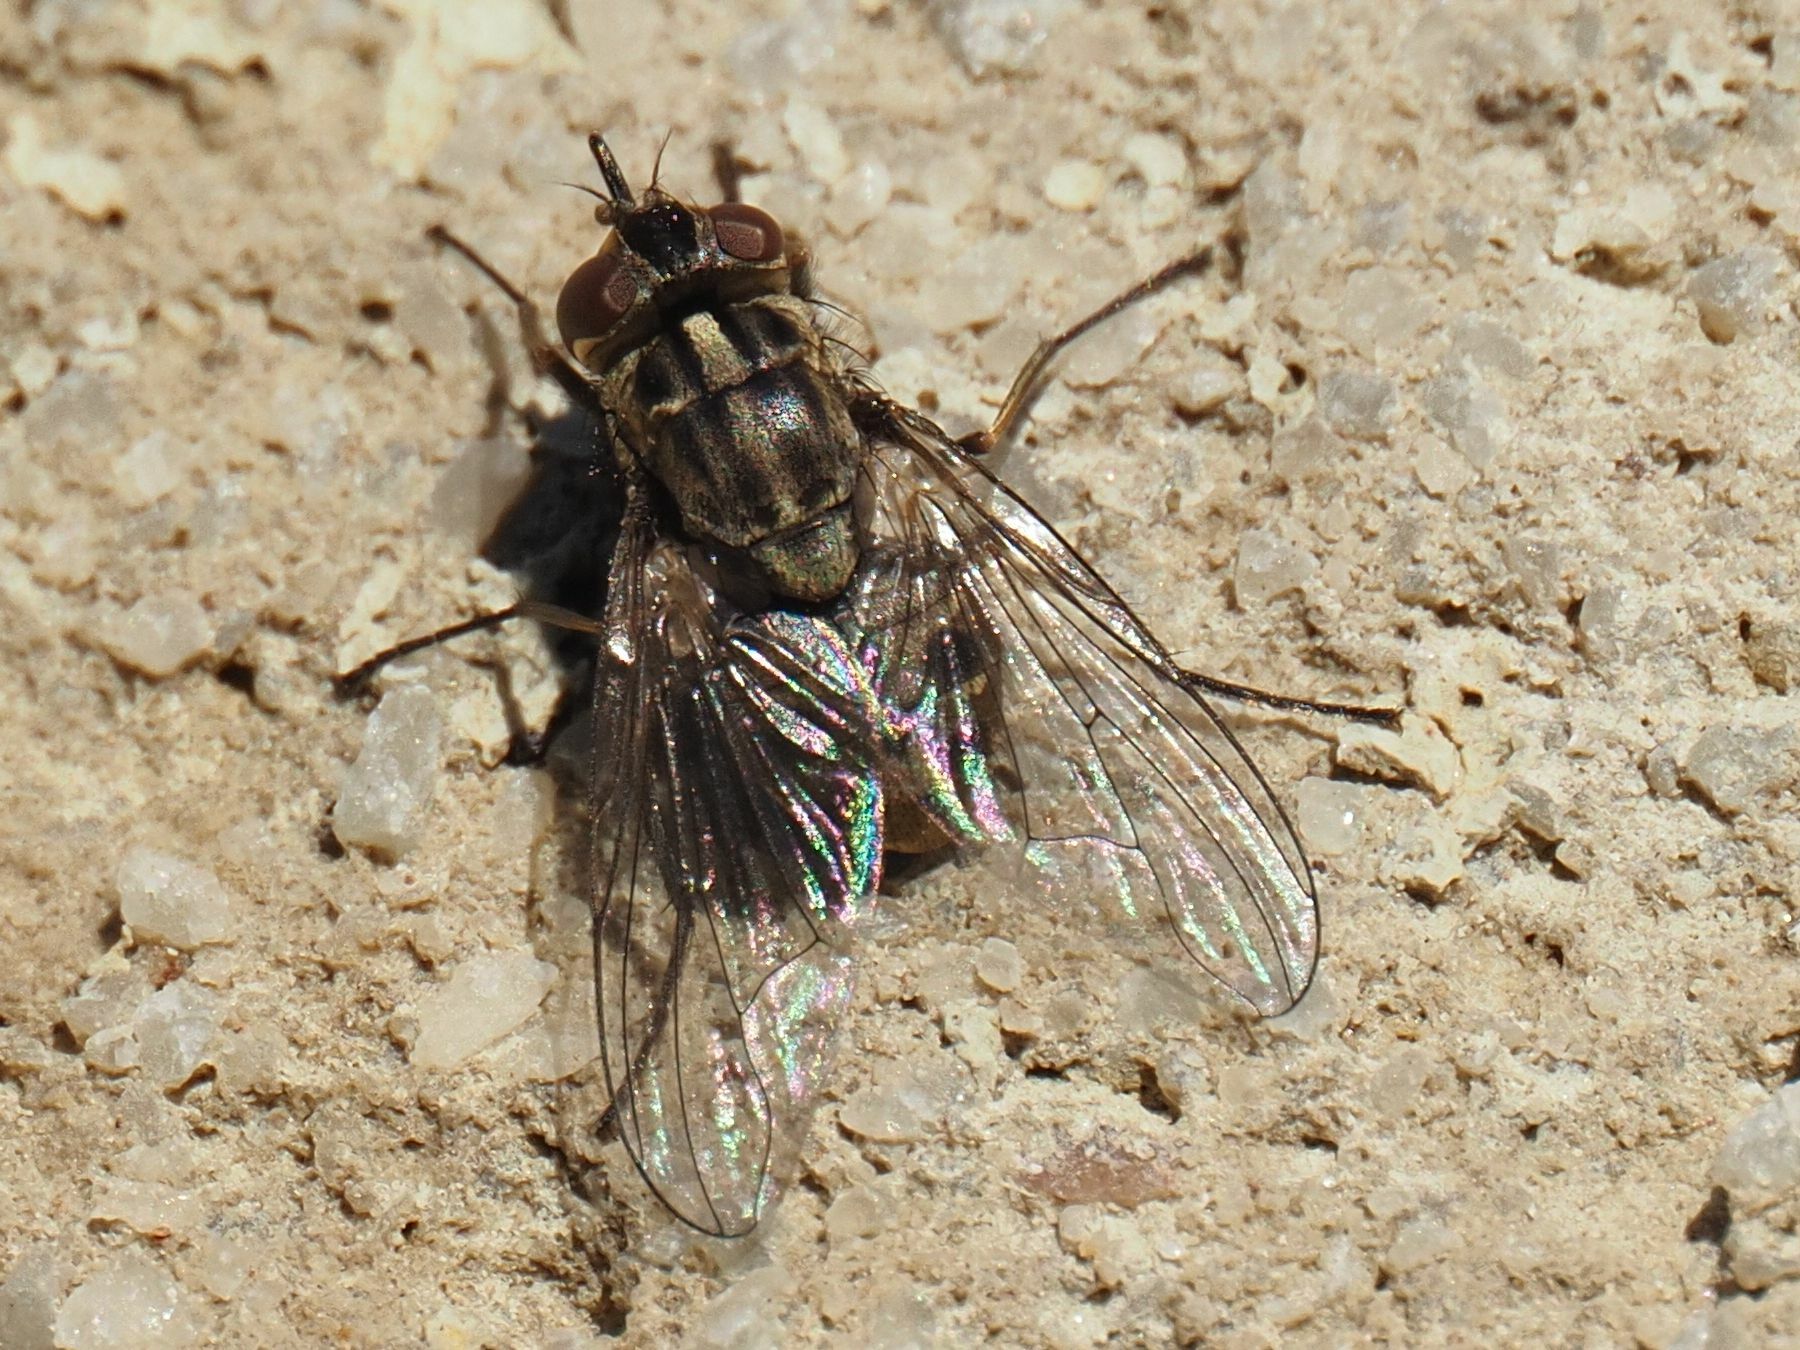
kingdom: Animalia
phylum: Arthropoda
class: Insecta
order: Diptera
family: Muscidae
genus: Stomoxys
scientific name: Stomoxys calcitrans
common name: Stable fly
